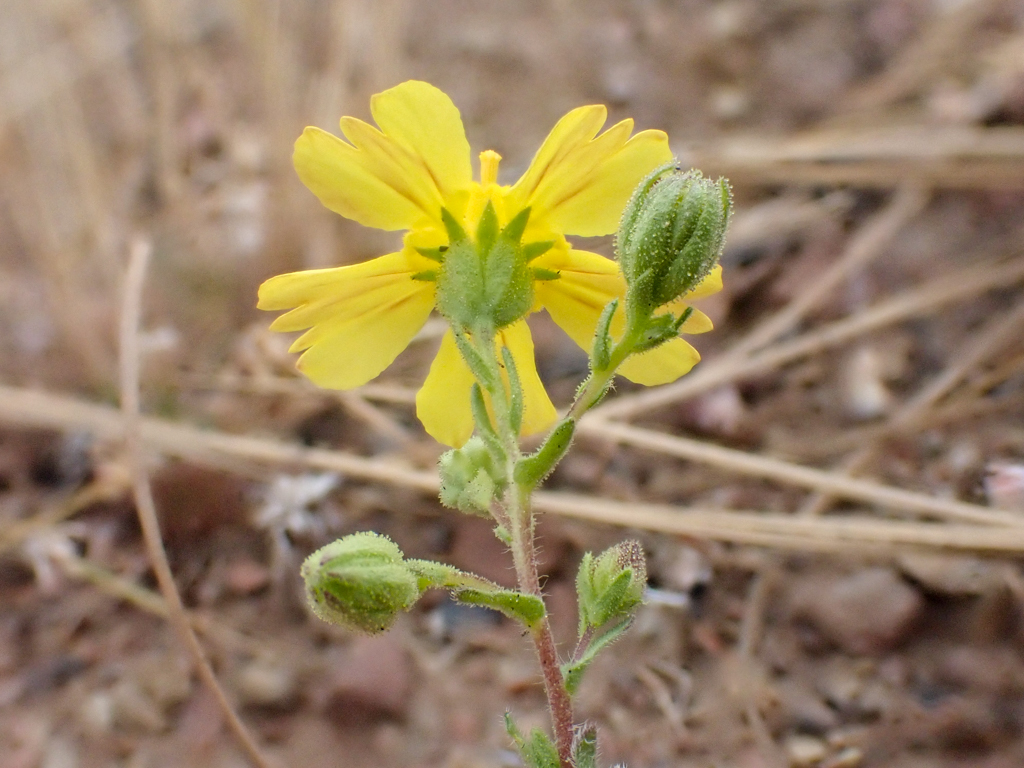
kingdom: Plantae
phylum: Tracheophyta
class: Magnoliopsida
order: Asterales
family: Asteraceae
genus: Deinandra
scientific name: Deinandra kelloggii
